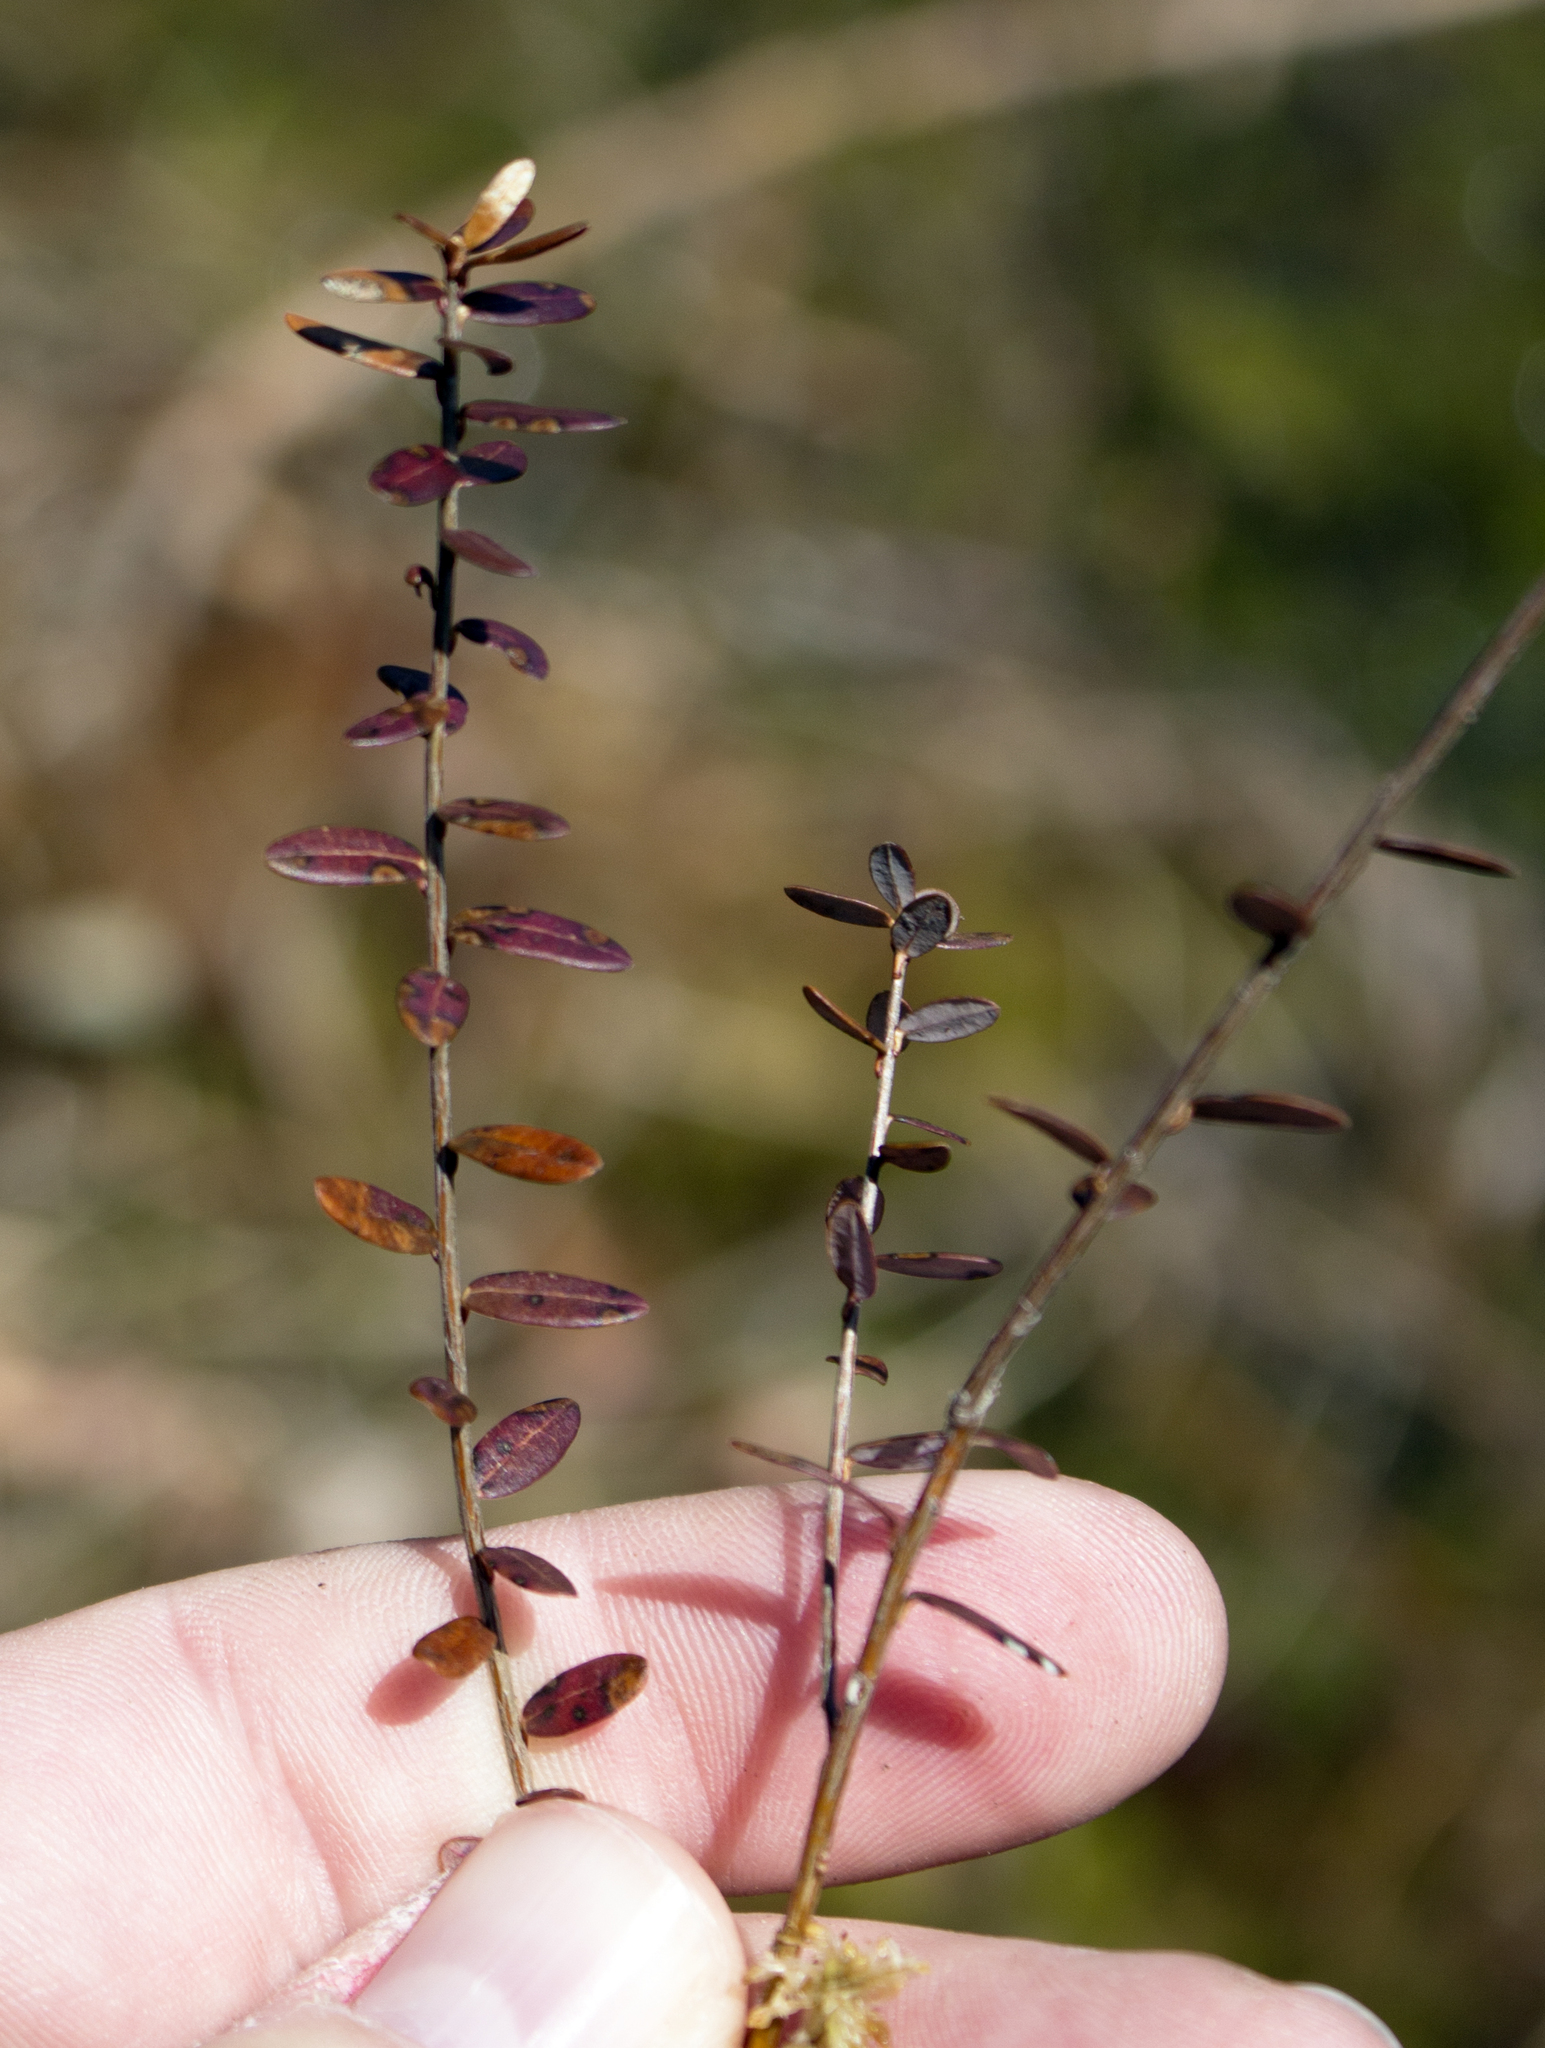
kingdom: Plantae
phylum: Tracheophyta
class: Magnoliopsida
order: Ericales
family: Ericaceae
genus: Vaccinium
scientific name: Vaccinium macrocarpon
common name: American cranberry
